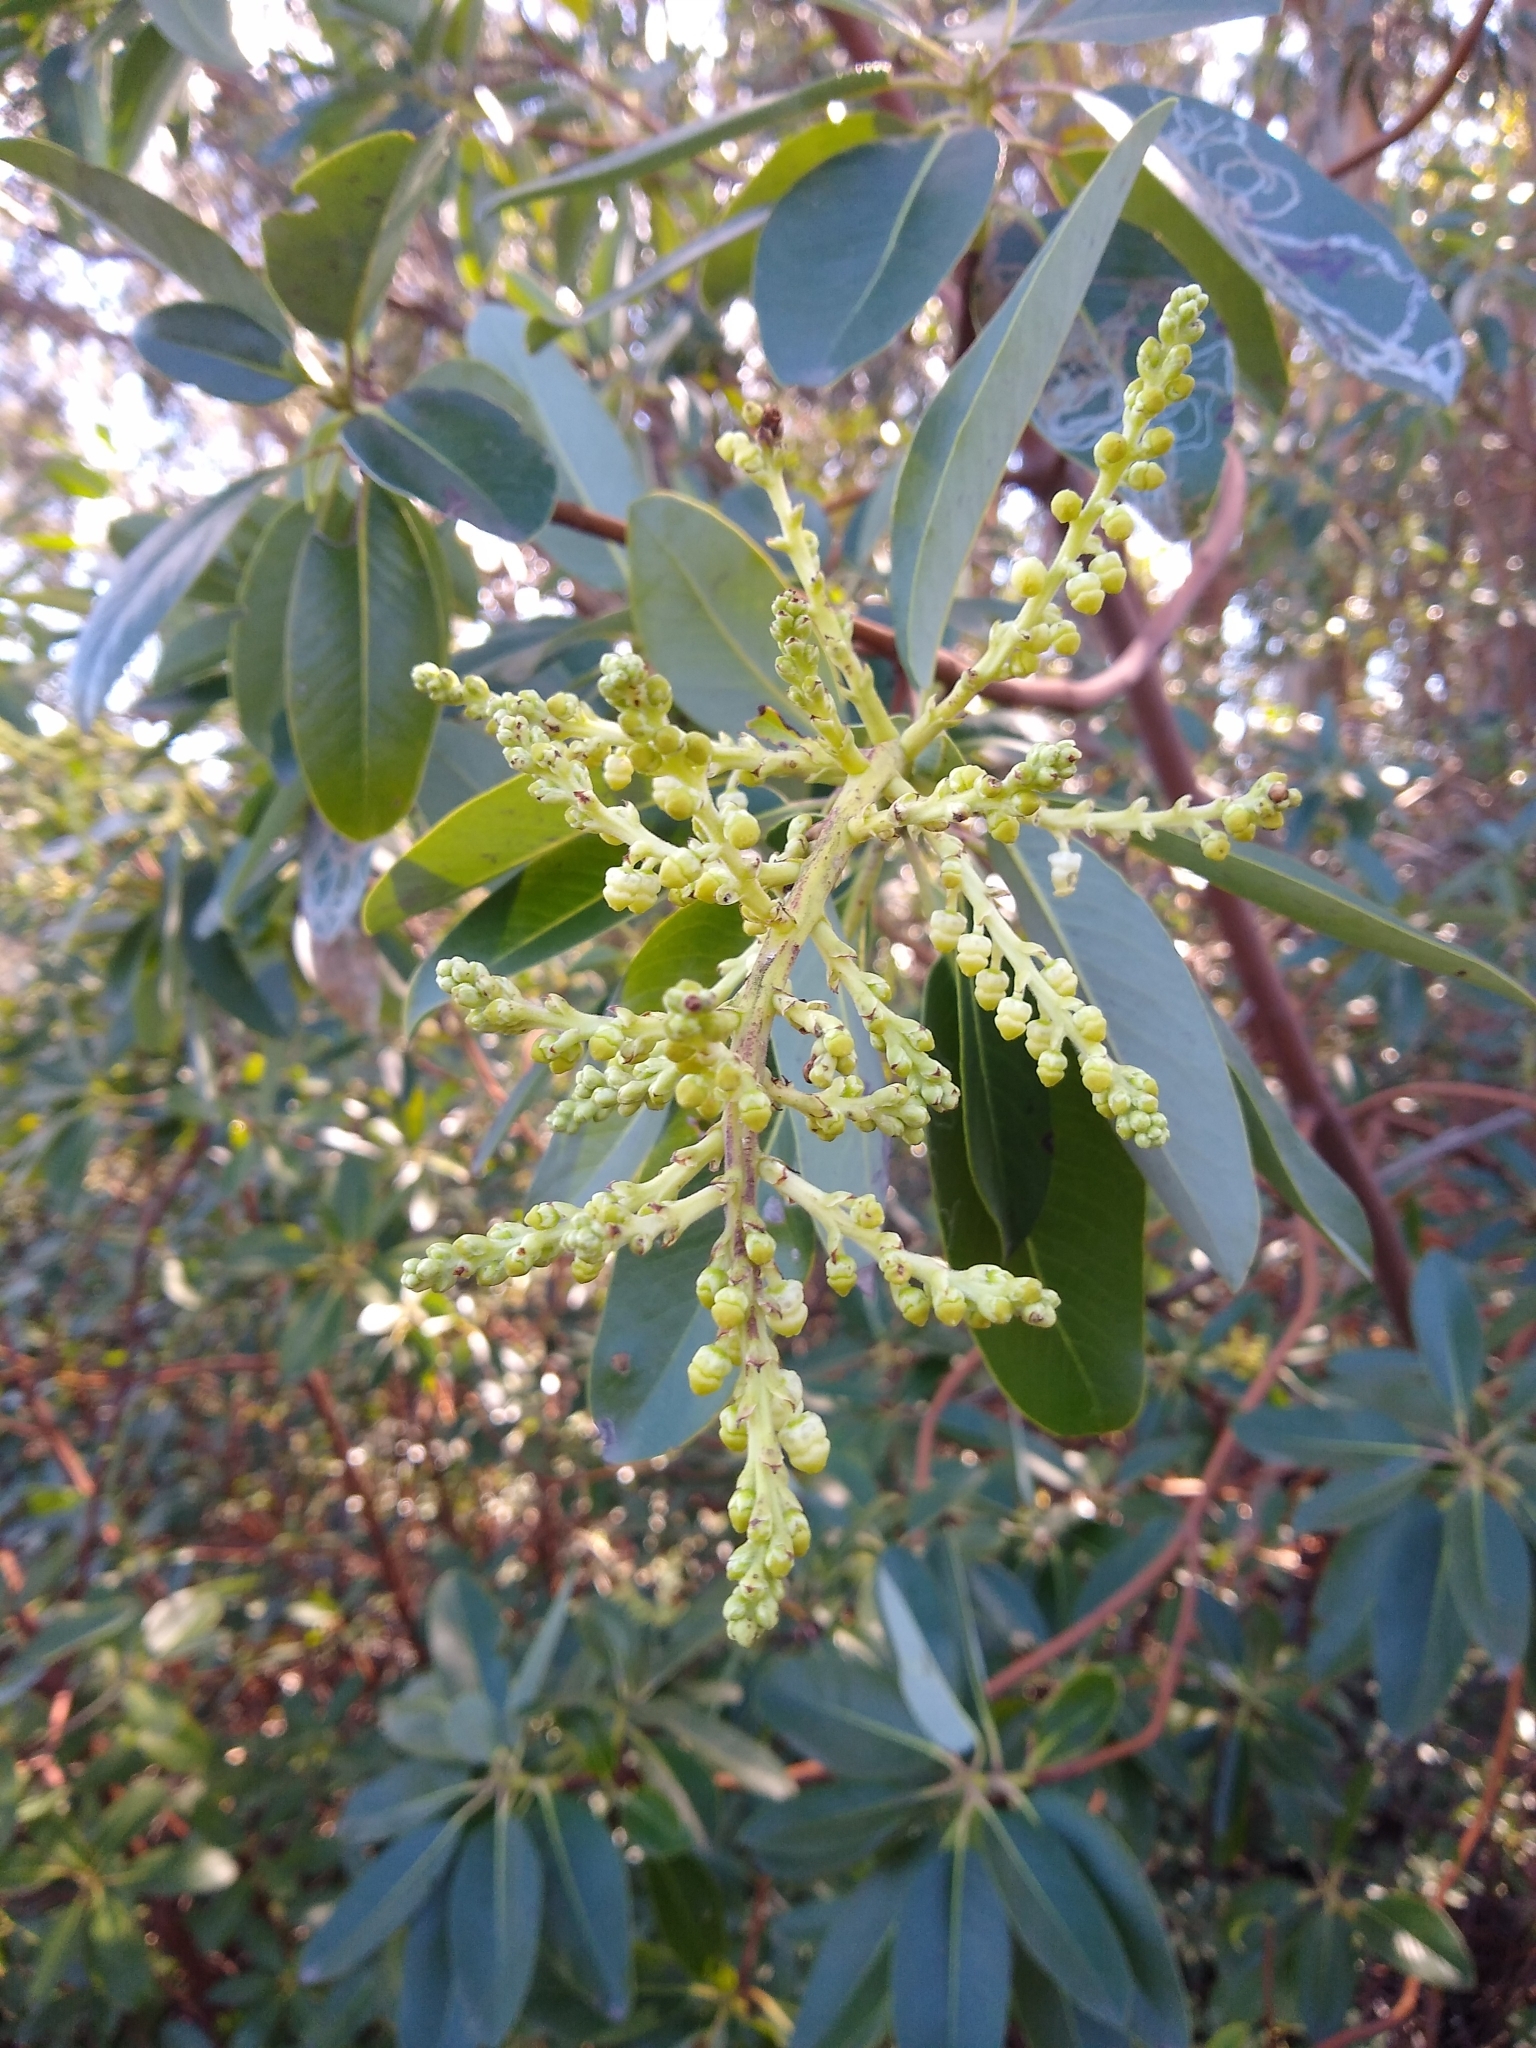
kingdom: Plantae
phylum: Tracheophyta
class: Magnoliopsida
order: Ericales
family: Ericaceae
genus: Arbutus
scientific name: Arbutus menziesii
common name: Pacific madrone
